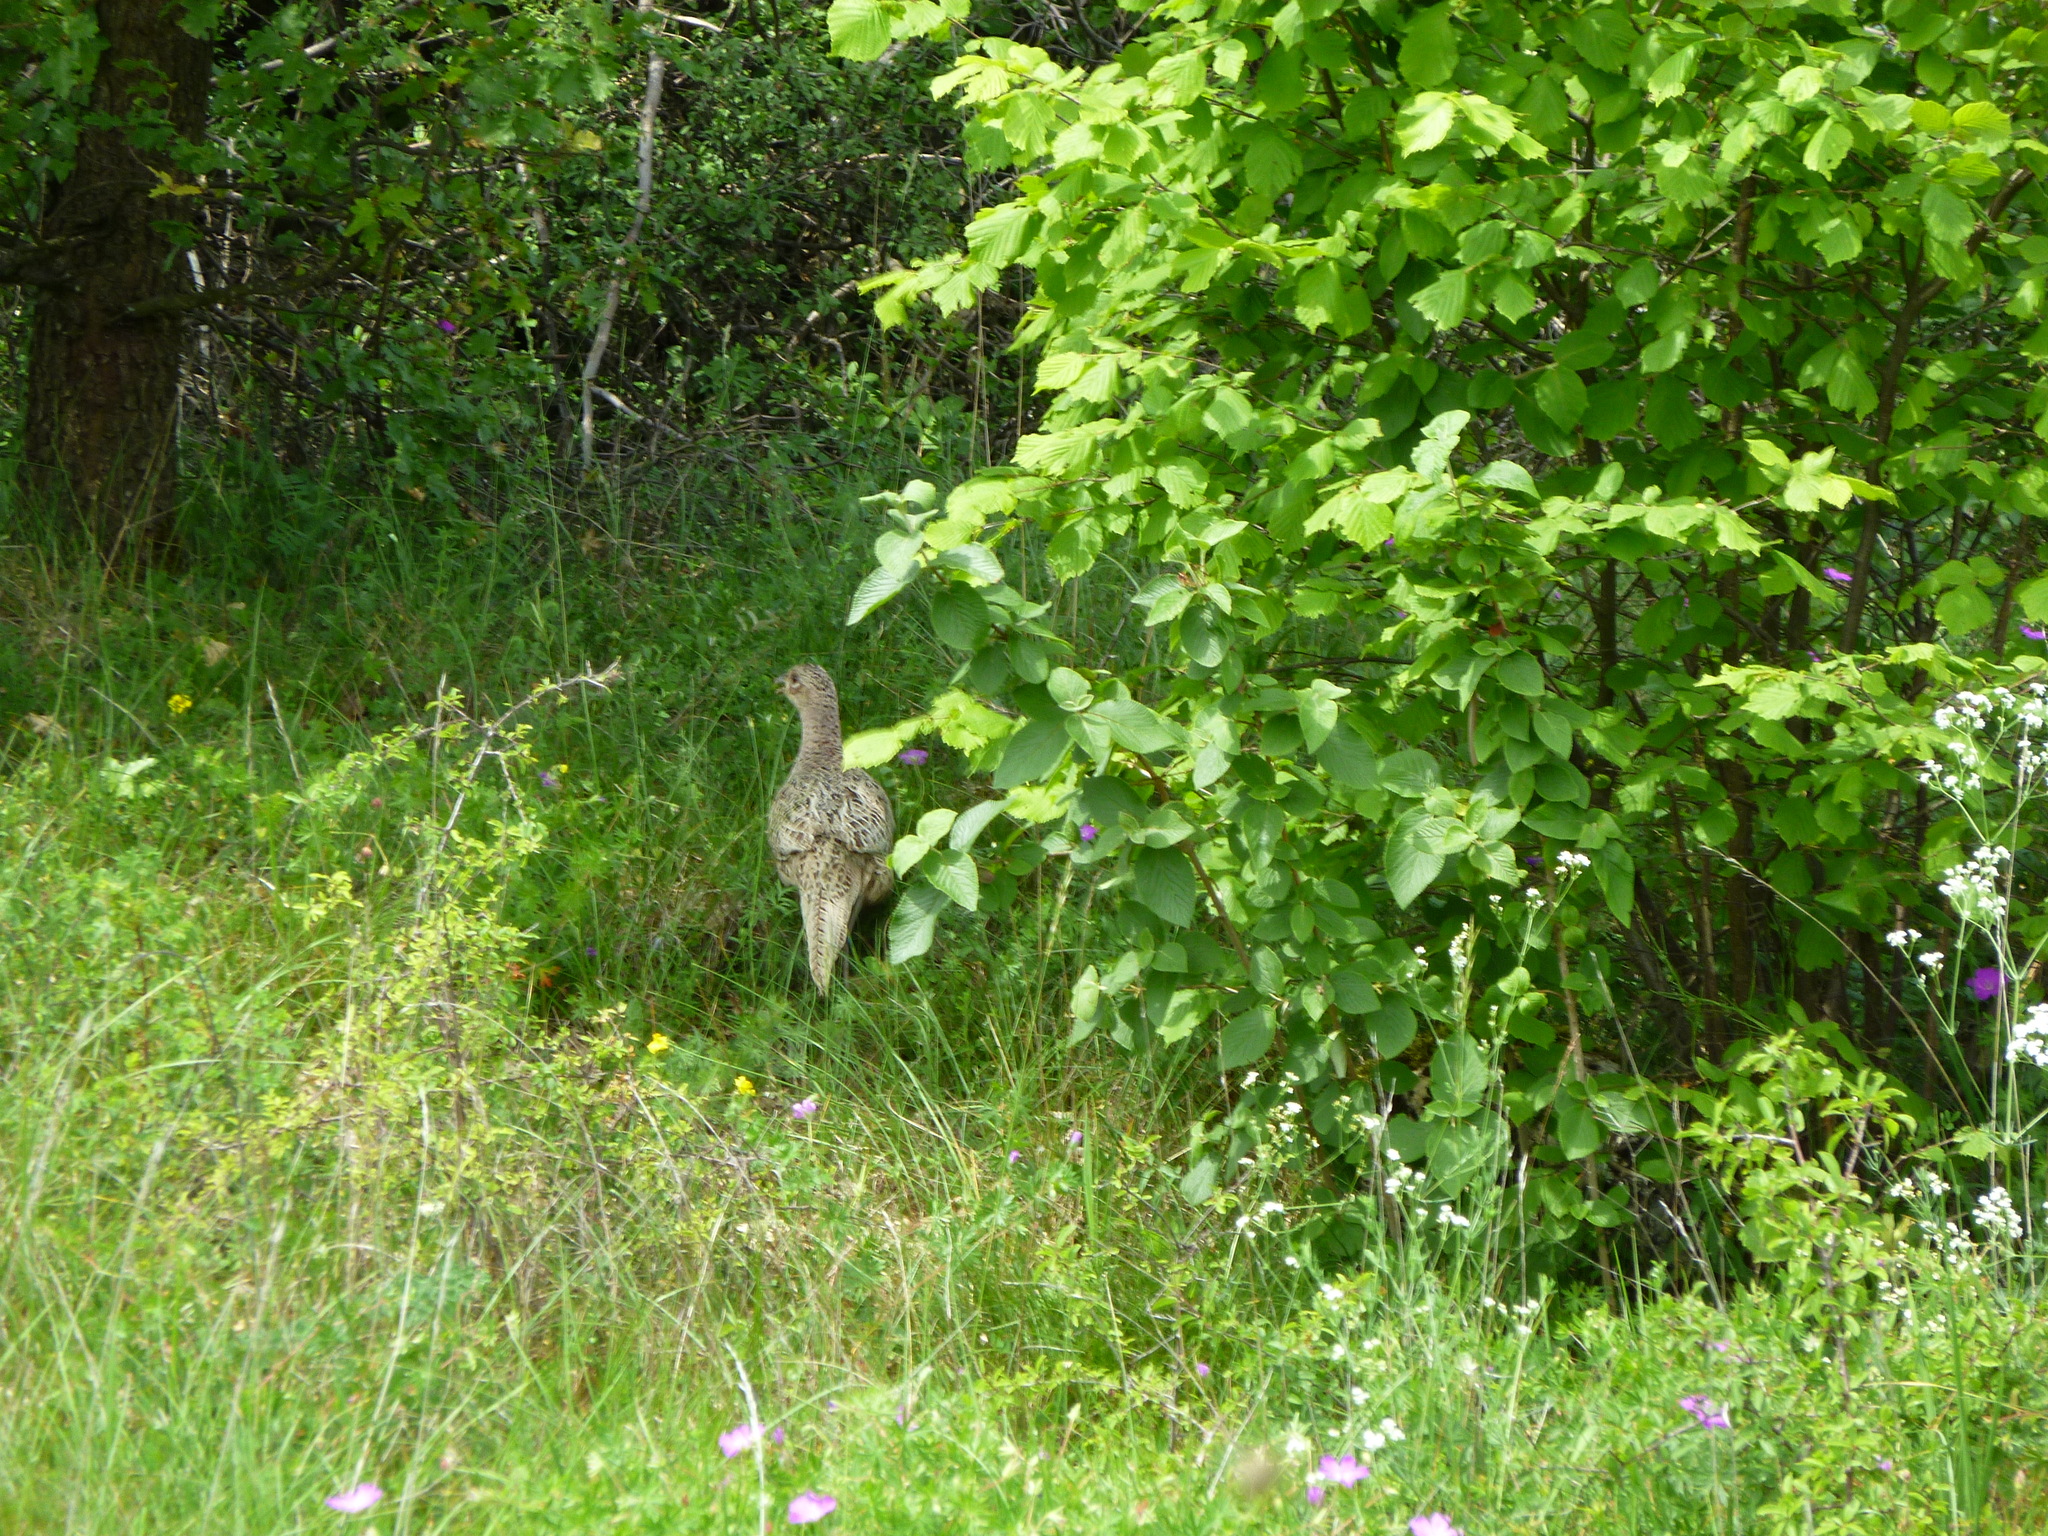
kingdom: Animalia
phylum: Chordata
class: Aves
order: Galliformes
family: Phasianidae
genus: Phasianus
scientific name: Phasianus colchicus
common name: Common pheasant
